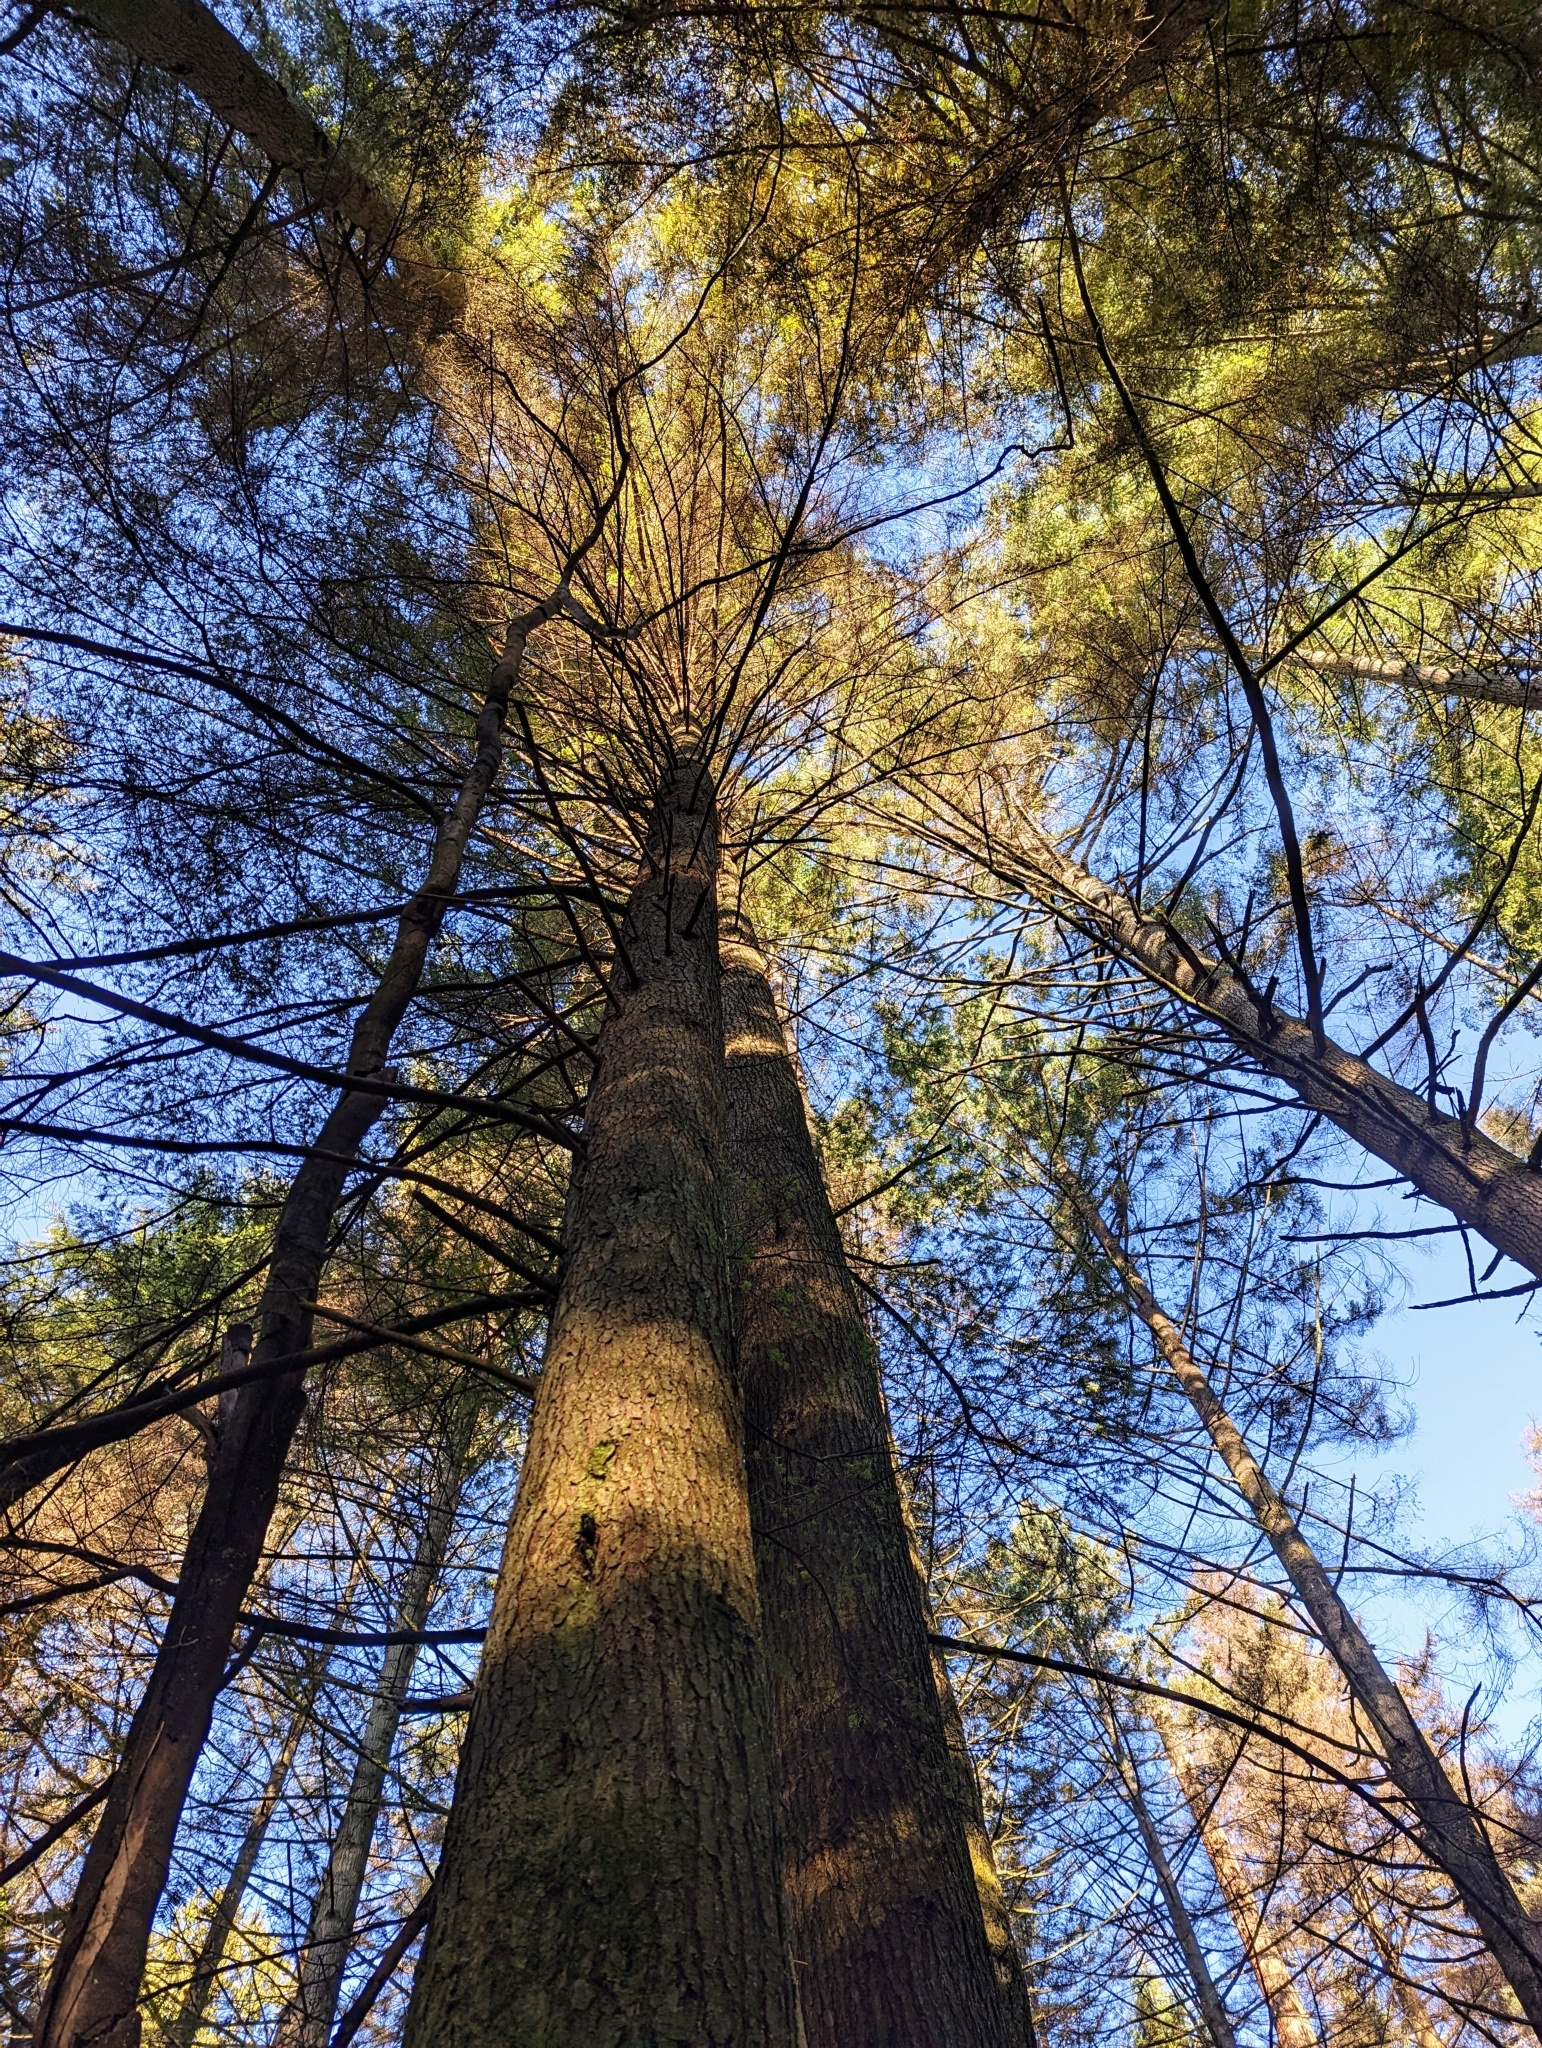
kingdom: Plantae
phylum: Tracheophyta
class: Pinopsida
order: Pinales
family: Pinaceae
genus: Tsuga
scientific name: Tsuga heterophylla
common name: Western hemlock
